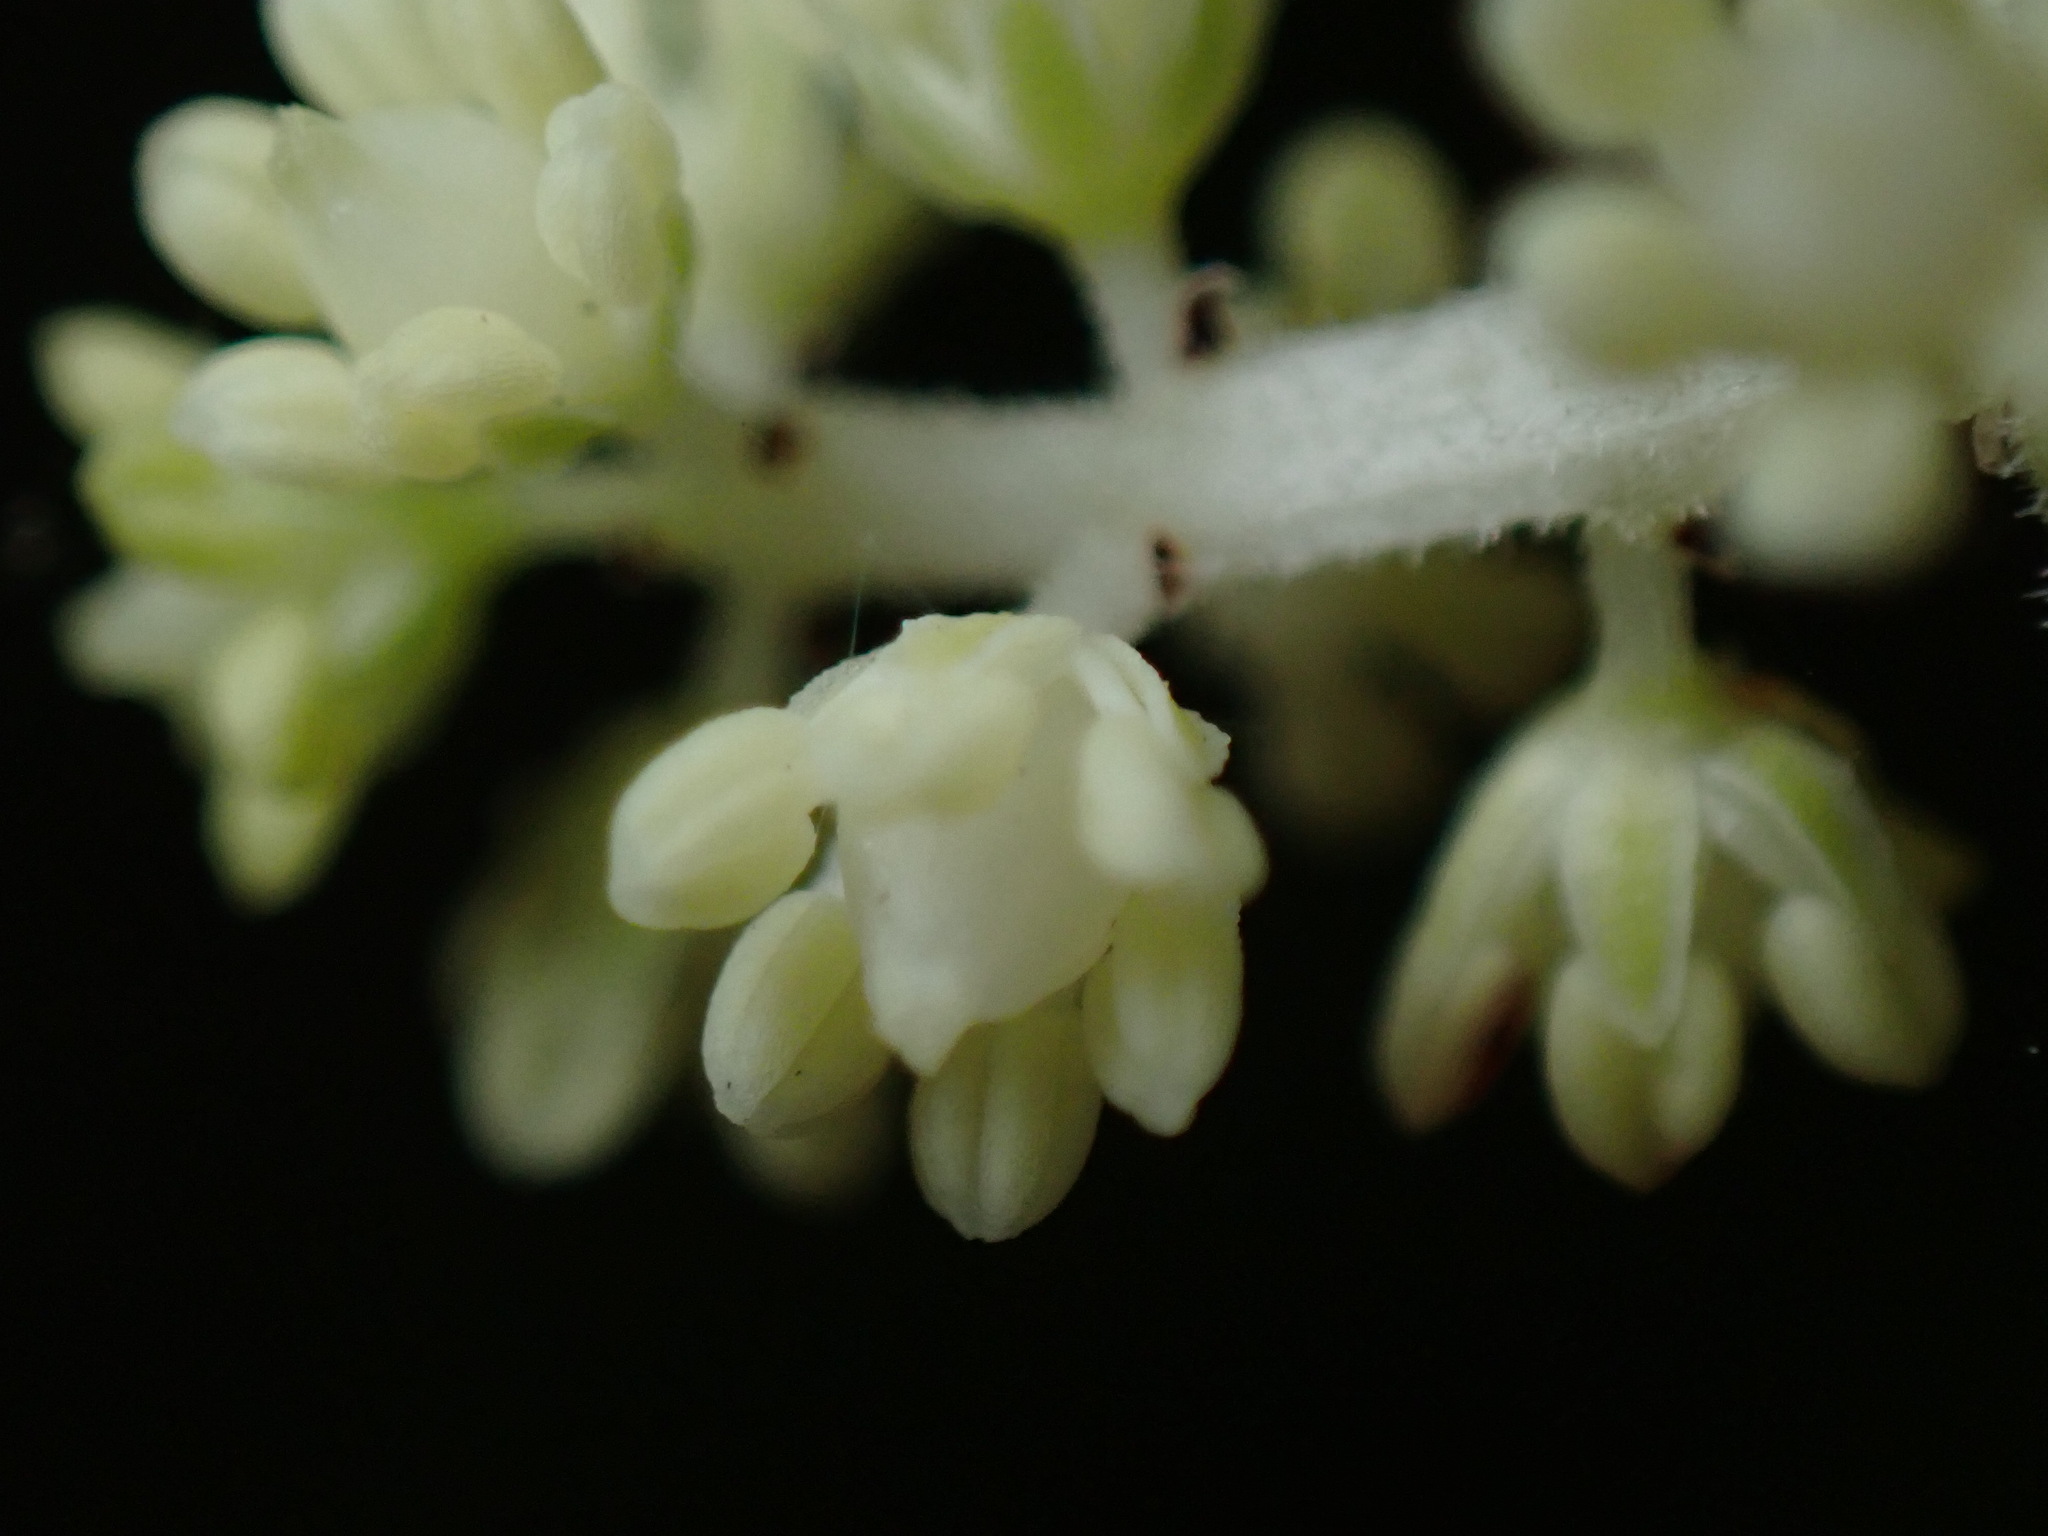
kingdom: Plantae
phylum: Tracheophyta
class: Liliopsida
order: Asparagales
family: Asparagaceae
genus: Maianthemum
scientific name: Maianthemum racemosum
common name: False spikenard
